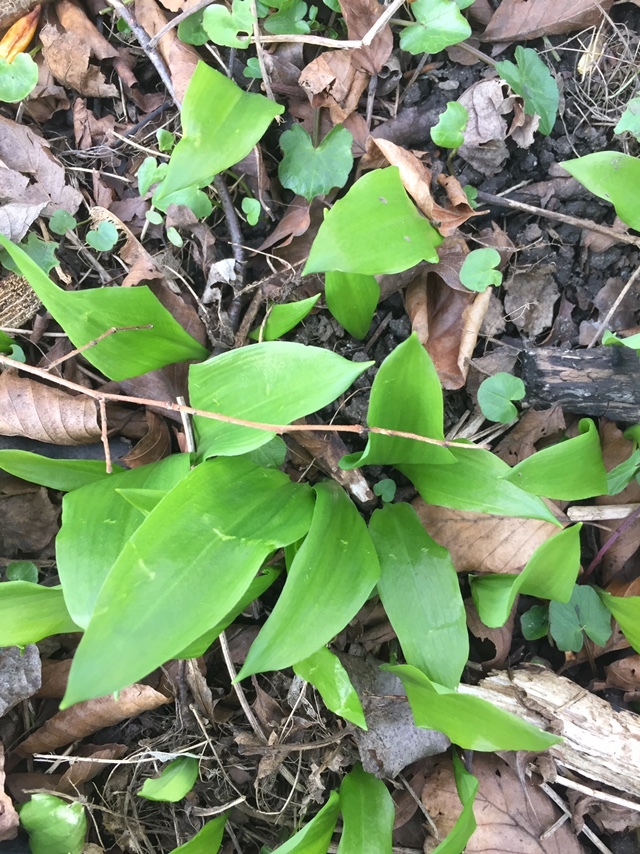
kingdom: Plantae
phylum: Tracheophyta
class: Liliopsida
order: Asparagales
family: Amaryllidaceae
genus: Allium
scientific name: Allium ursinum
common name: Ramsons
